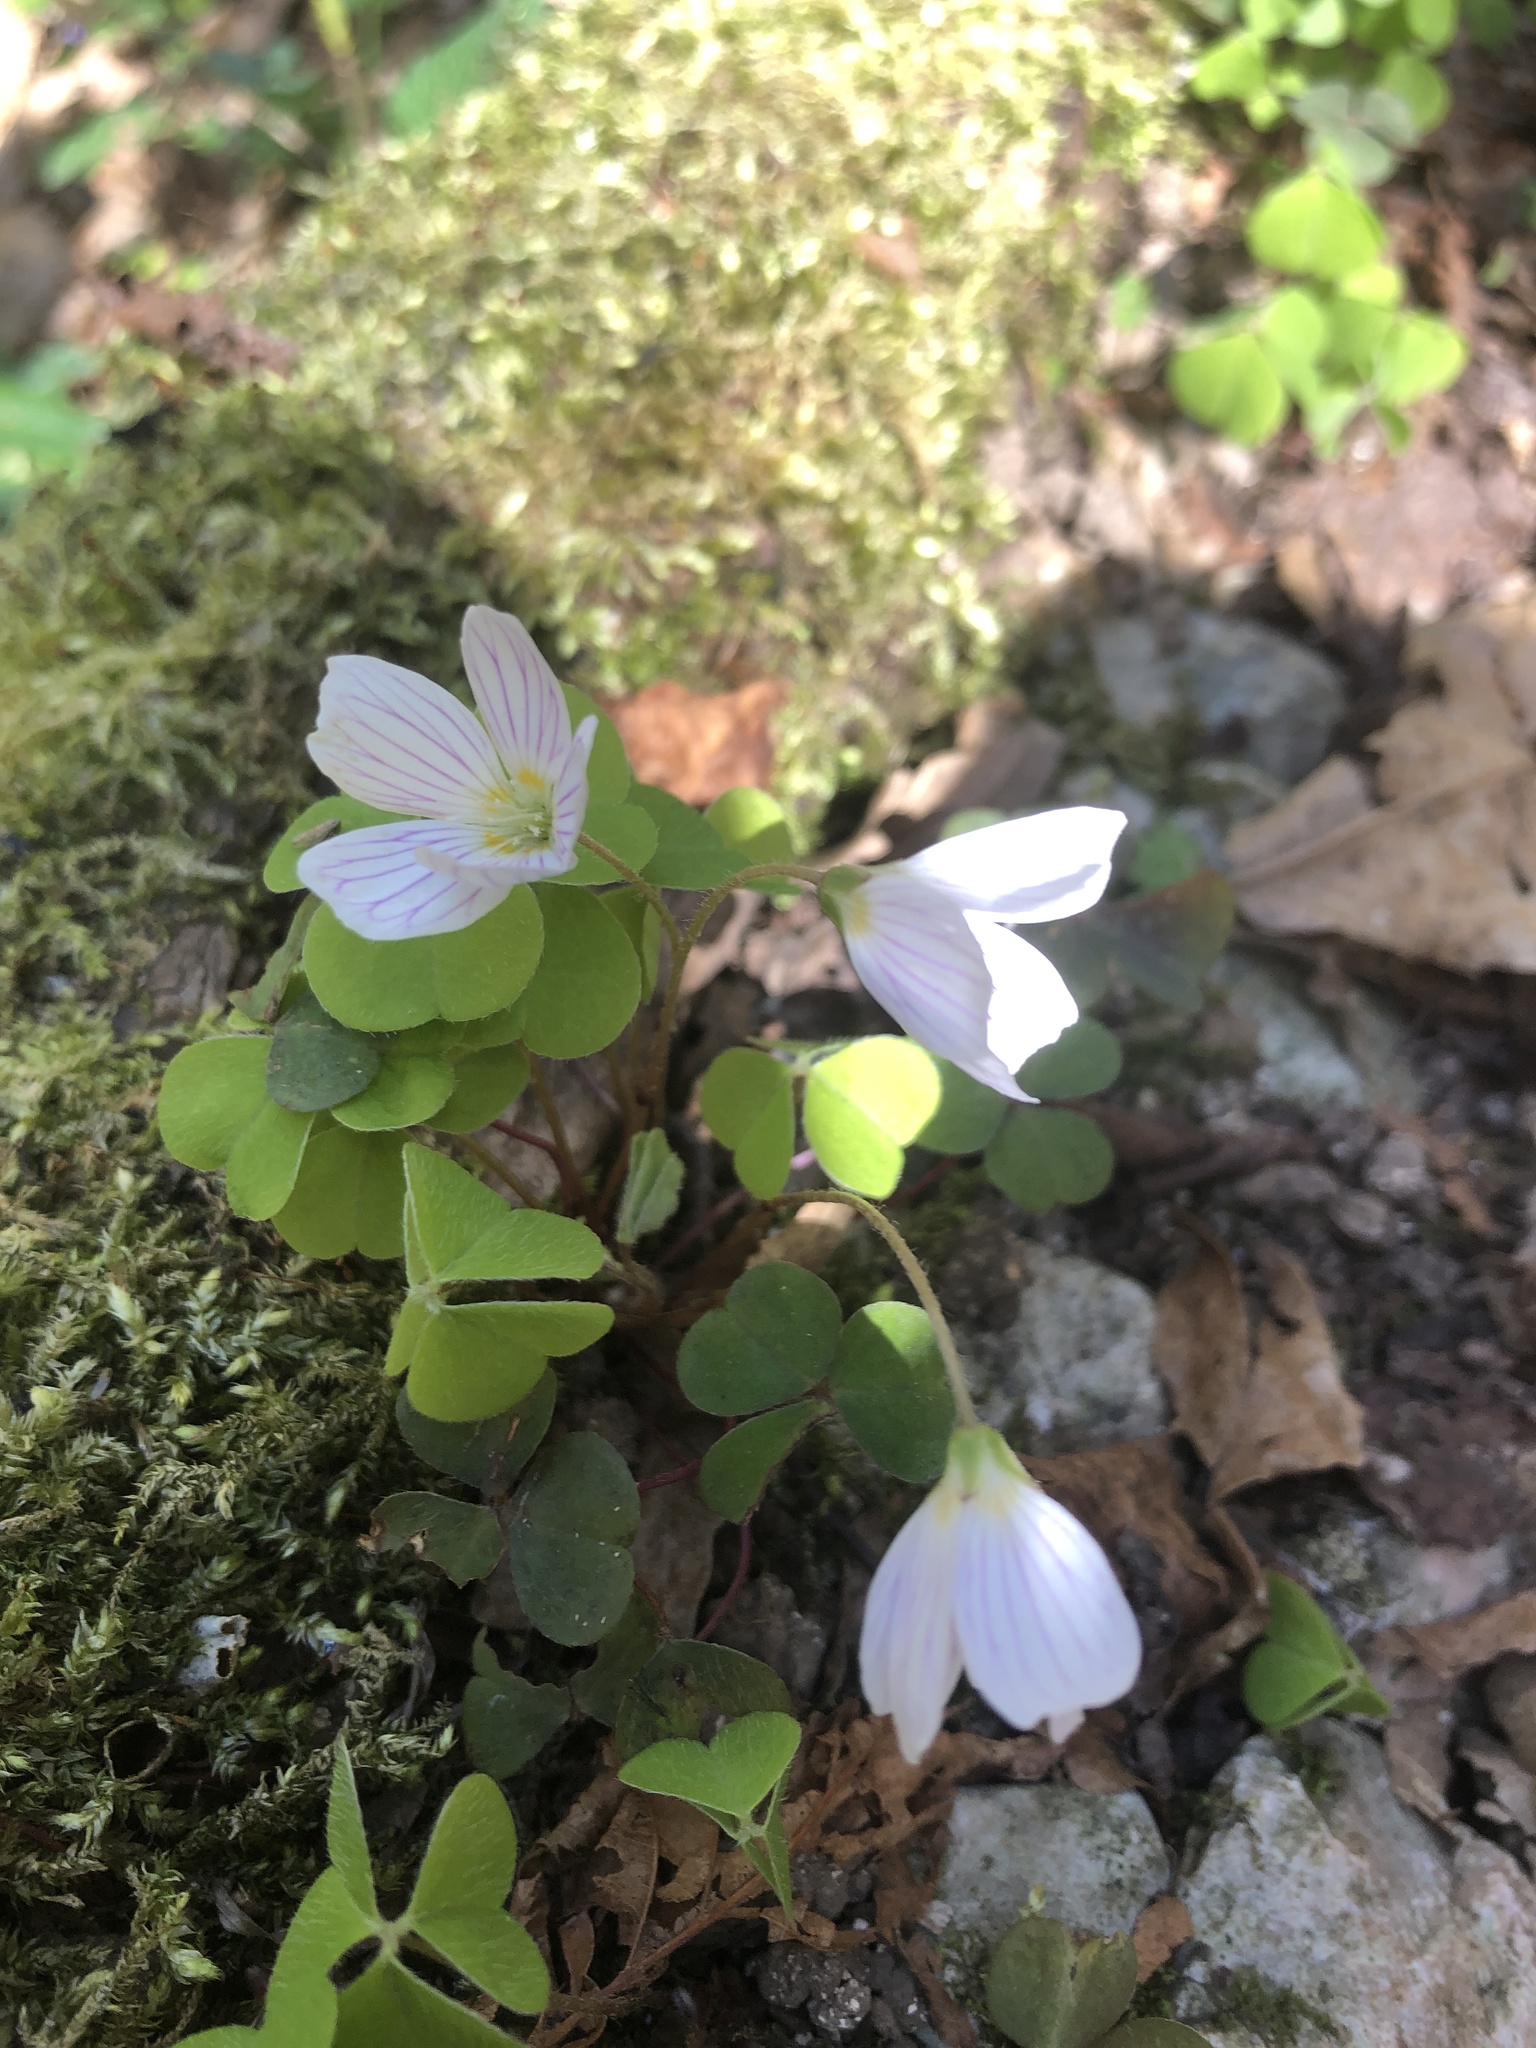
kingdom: Plantae
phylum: Tracheophyta
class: Magnoliopsida
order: Oxalidales
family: Oxalidaceae
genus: Oxalis
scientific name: Oxalis acetosella
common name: Wood-sorrel
